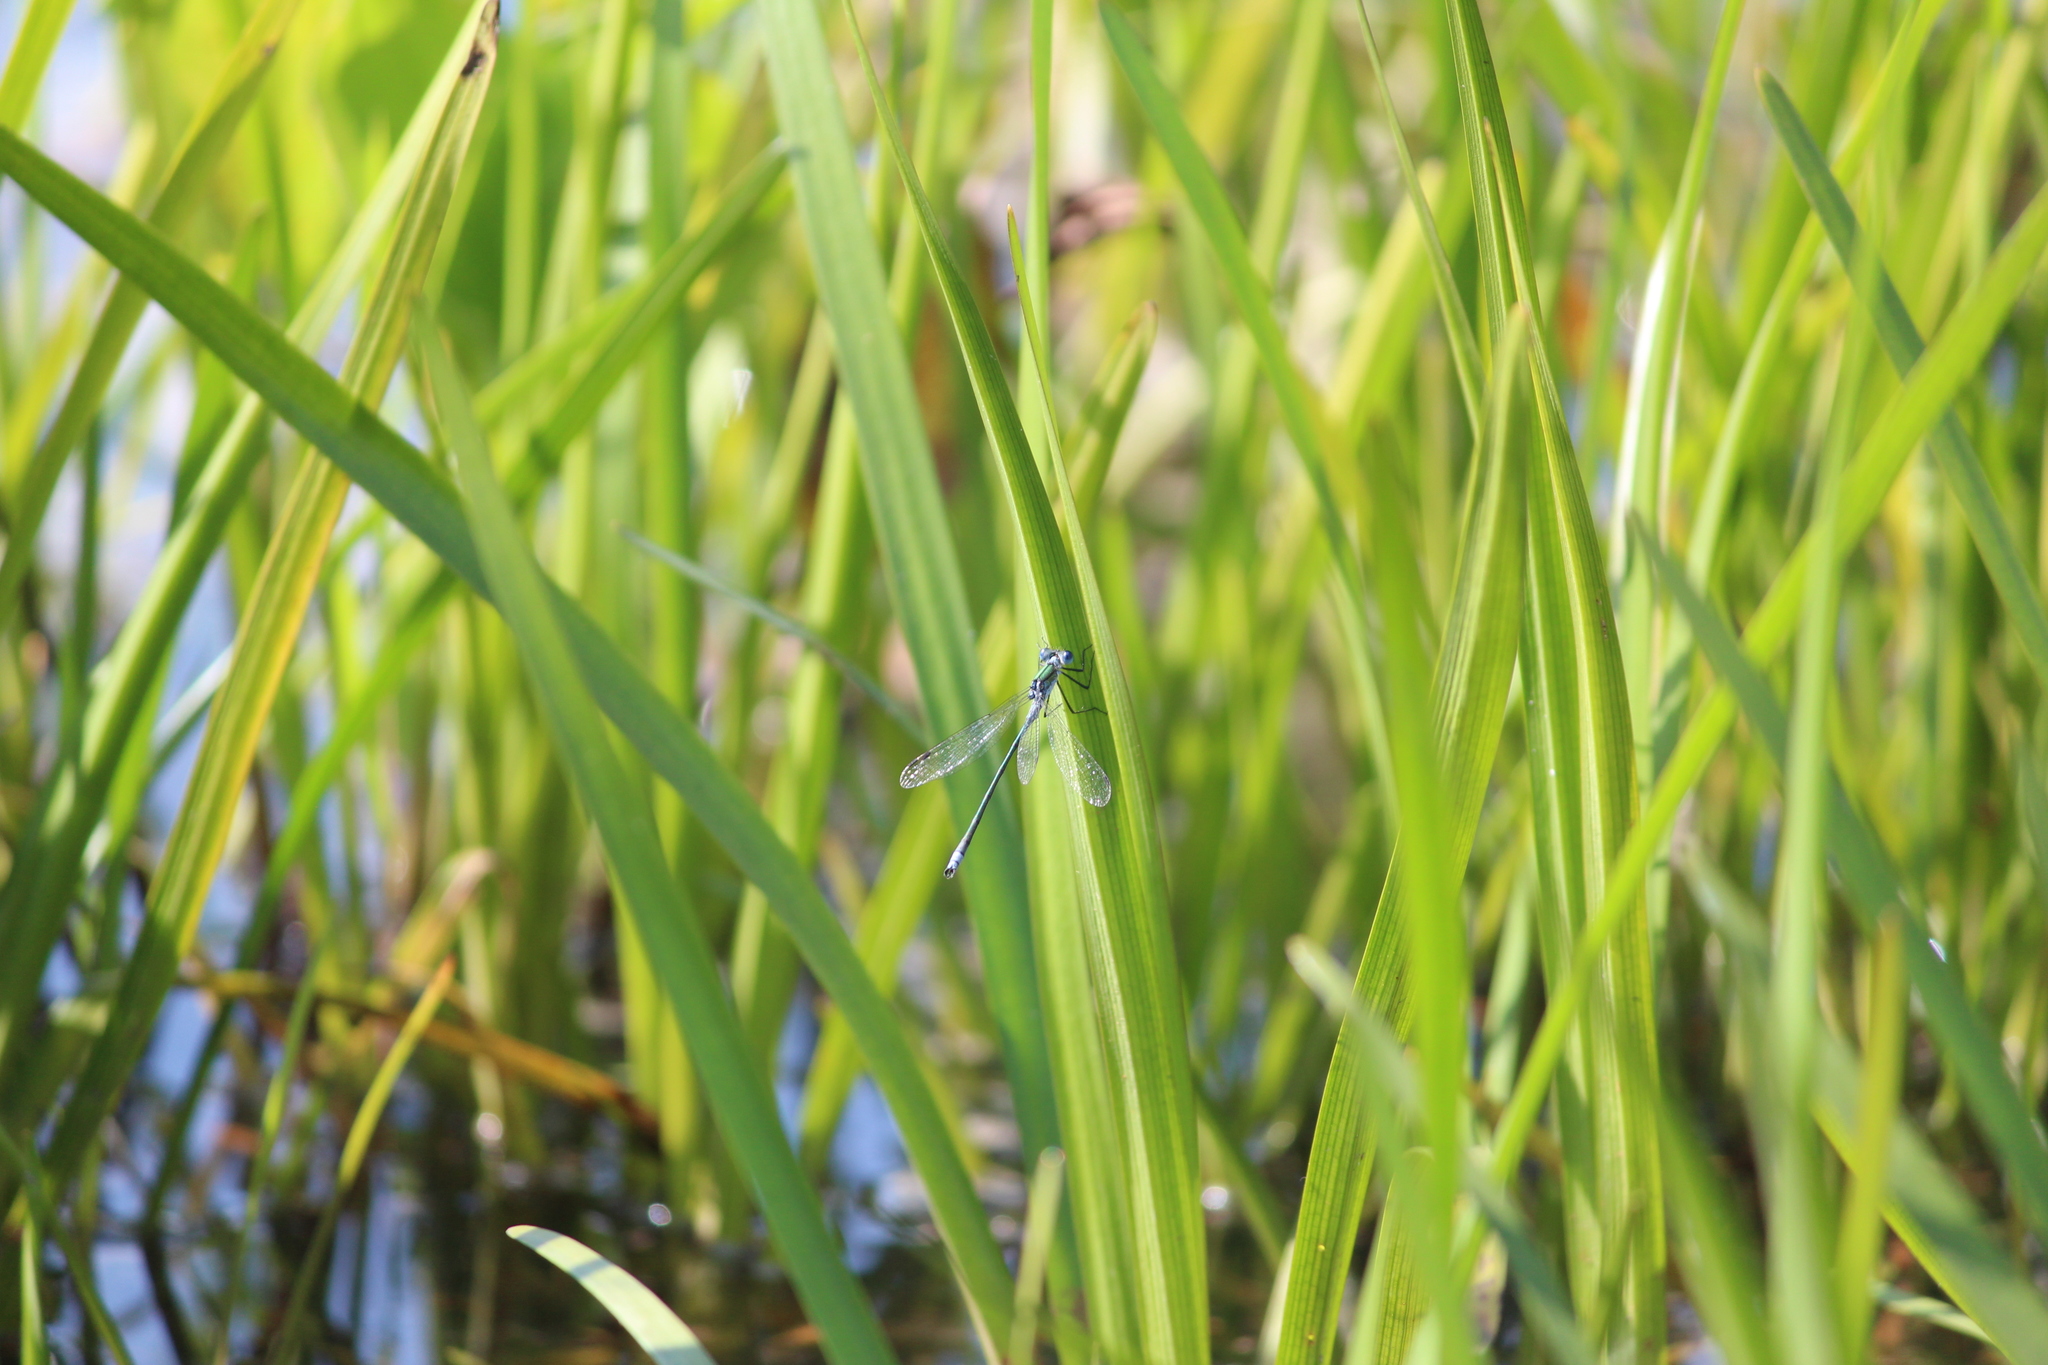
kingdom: Animalia
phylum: Arthropoda
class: Insecta
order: Odonata
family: Lestidae
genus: Lestes
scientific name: Lestes sponsa
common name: Common spreadwing
